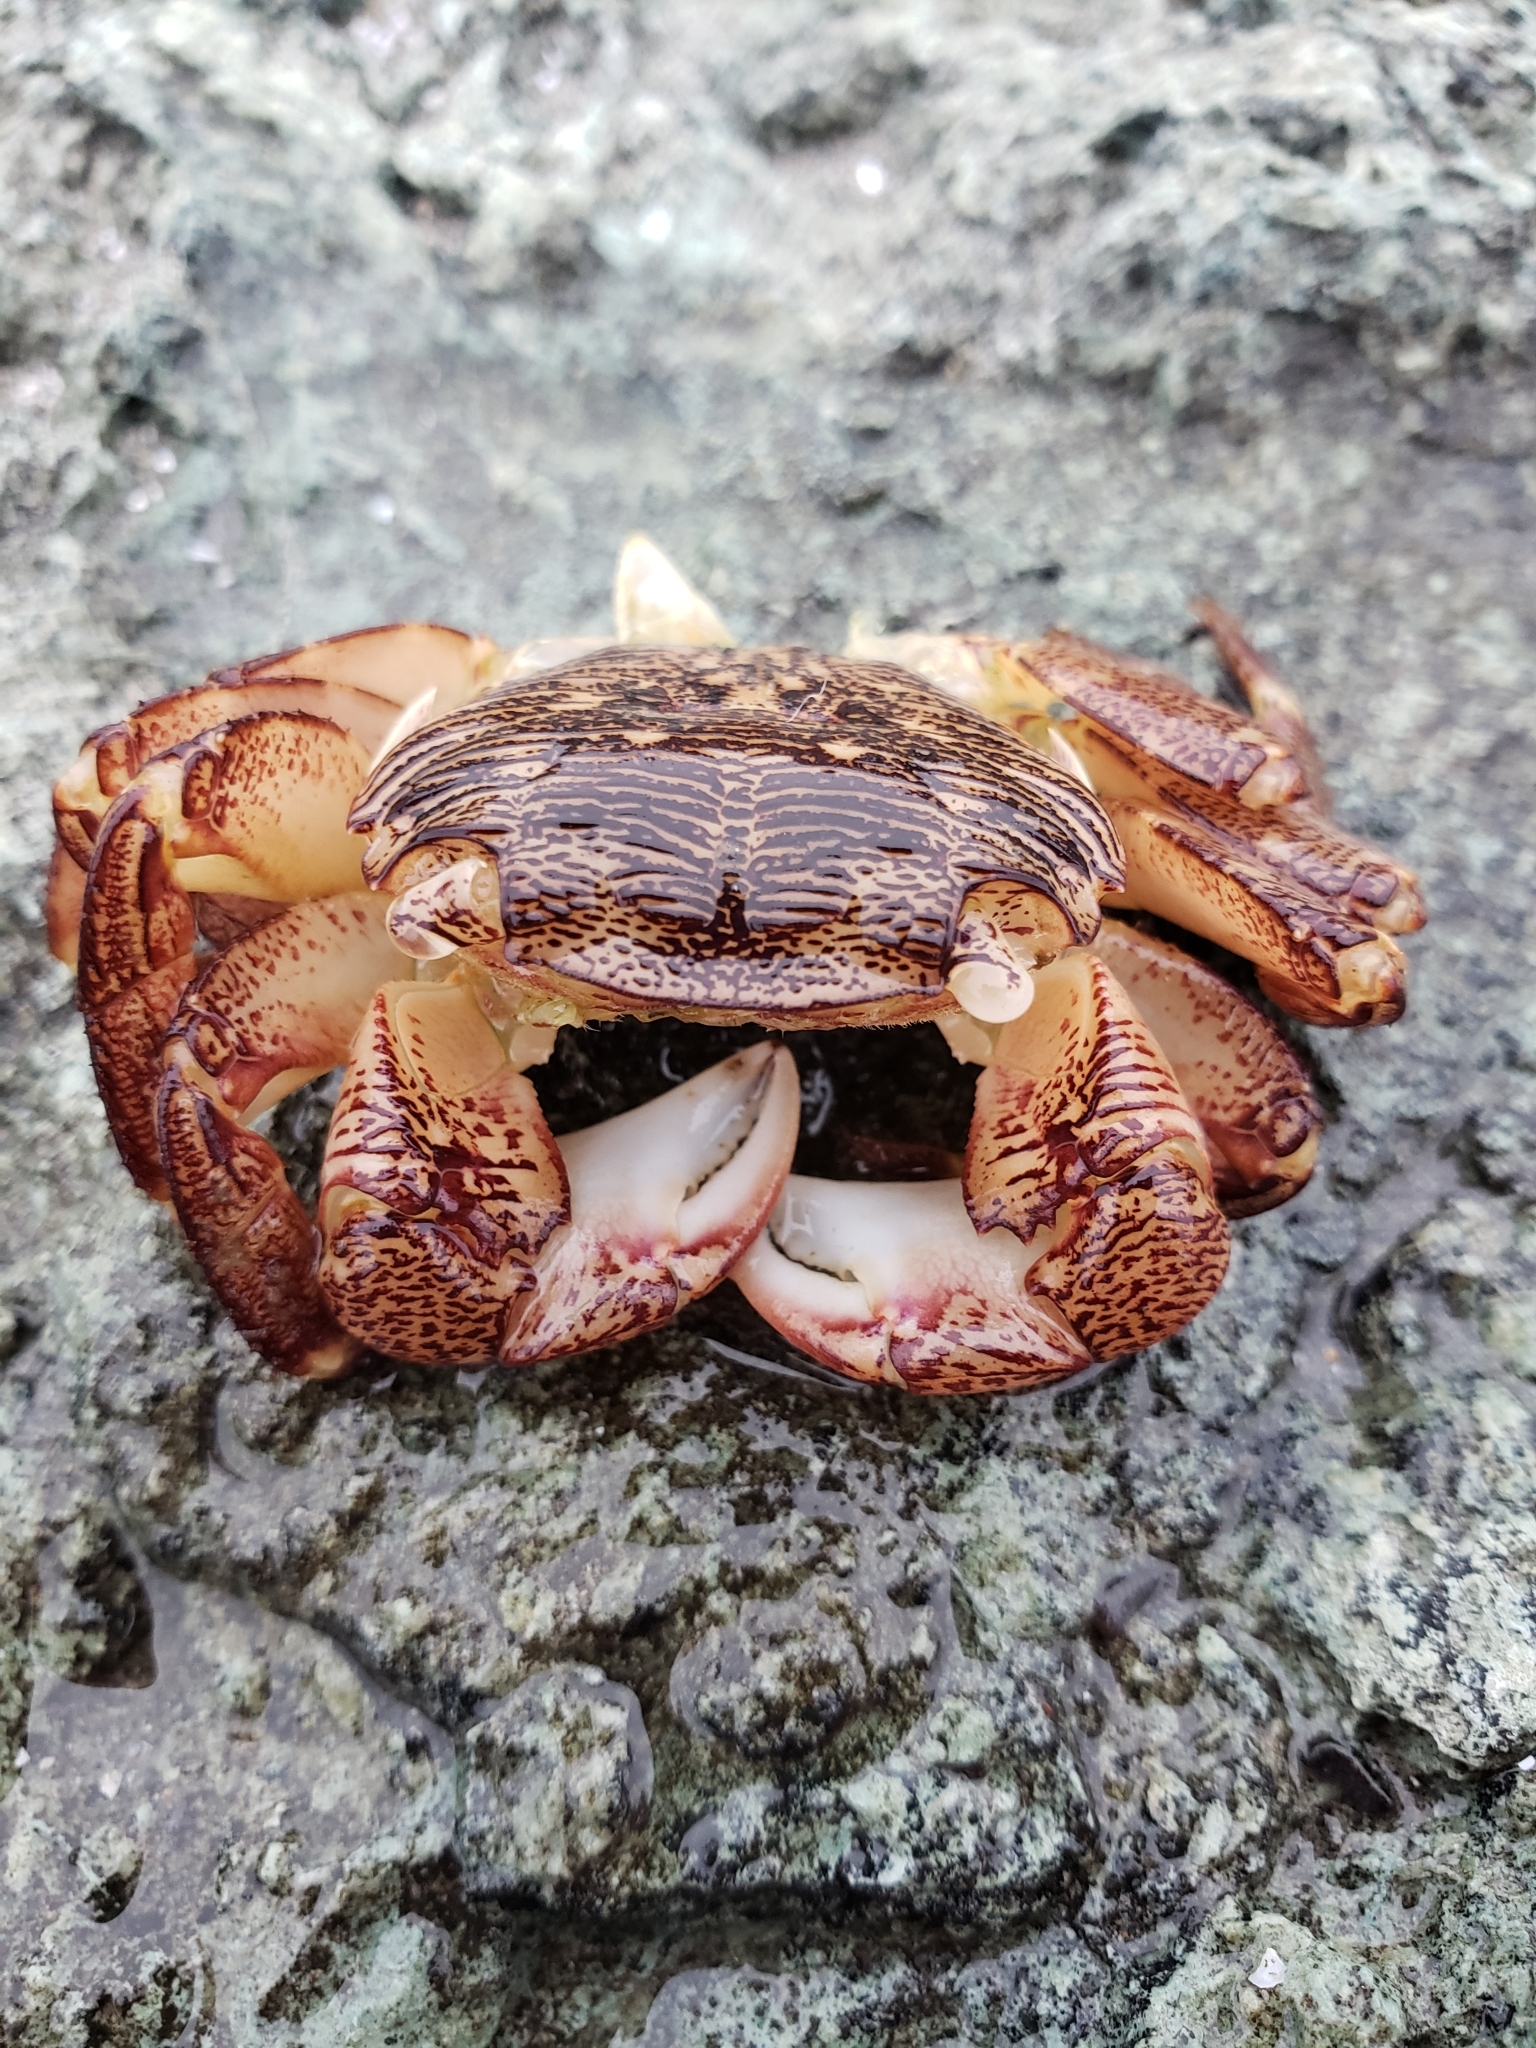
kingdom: Animalia
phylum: Arthropoda
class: Malacostraca
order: Decapoda
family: Grapsidae
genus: Pachygrapsus
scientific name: Pachygrapsus crassipes
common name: Striped shore crab
